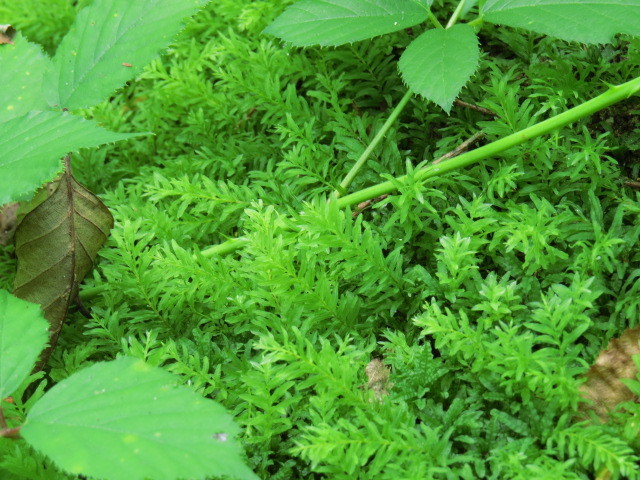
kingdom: Plantae
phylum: Bryophyta
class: Bryopsida
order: Bryales
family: Mniaceae
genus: Plagiomnium
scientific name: Plagiomnium undulatum
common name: Hart's-tongue thyme-moss
